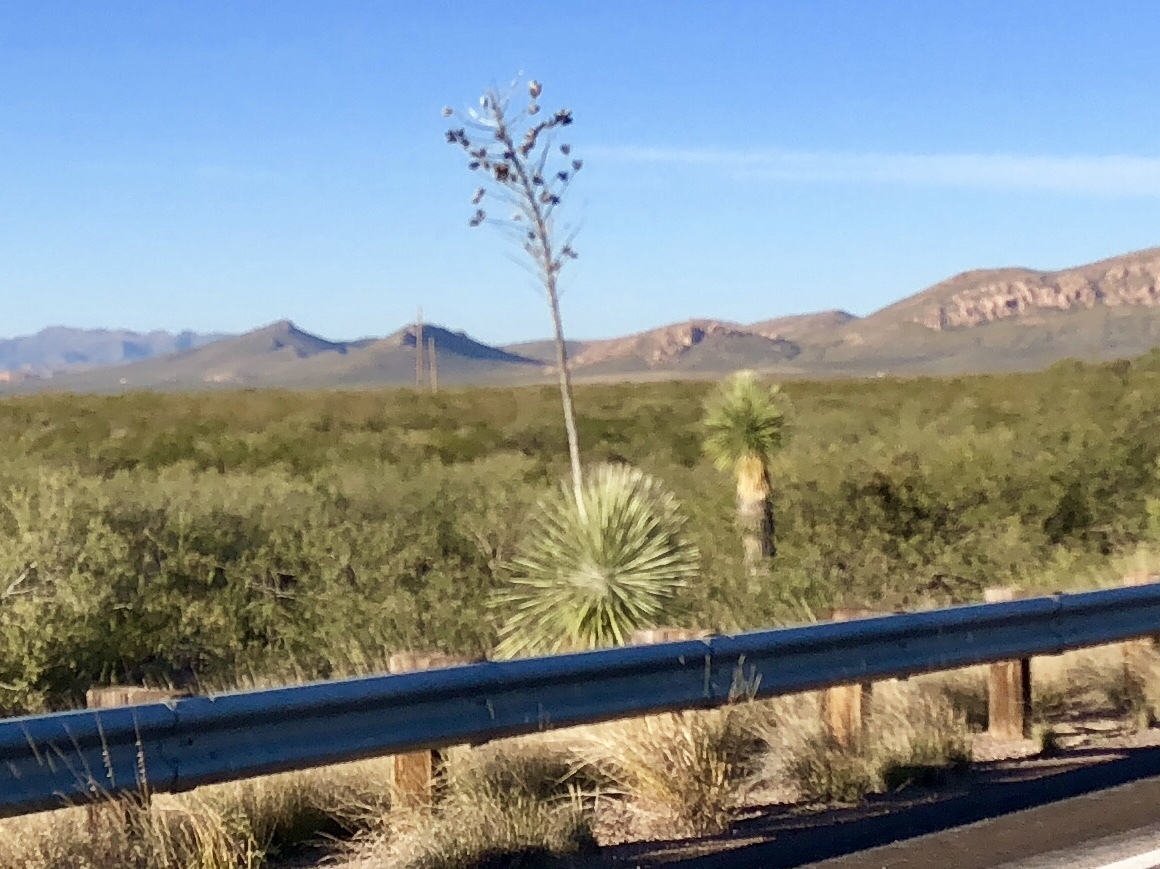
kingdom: Plantae
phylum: Tracheophyta
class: Liliopsida
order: Asparagales
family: Asparagaceae
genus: Yucca
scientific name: Yucca elata
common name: Palmella
